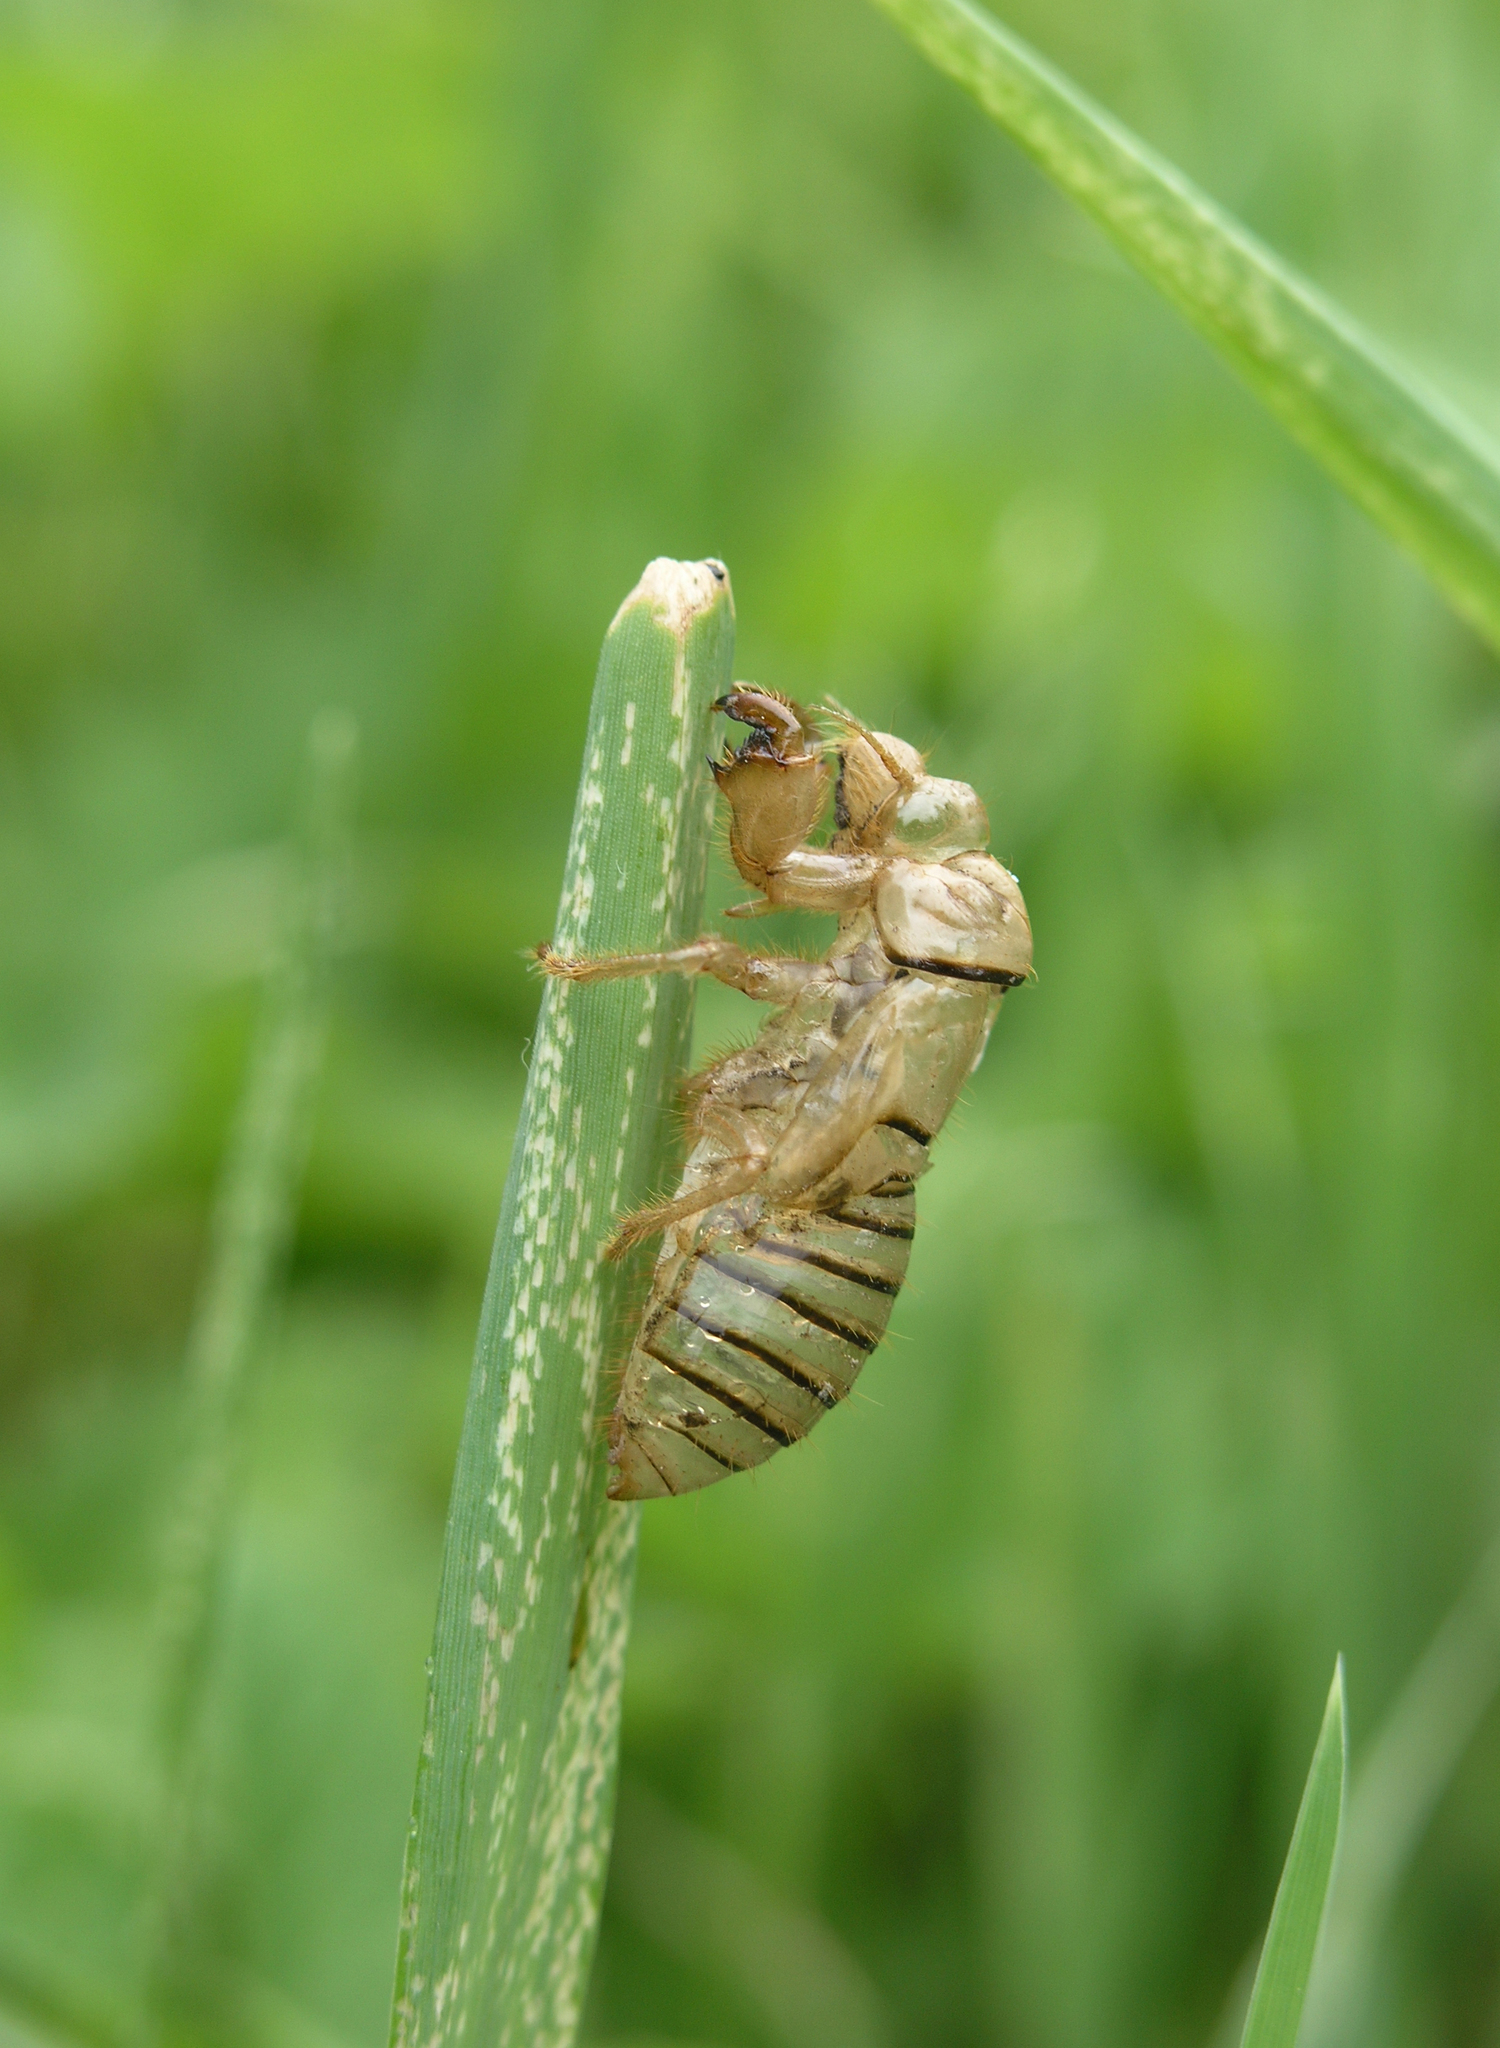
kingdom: Animalia
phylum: Arthropoda
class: Insecta
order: Hemiptera
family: Cicadidae
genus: Cicadetta
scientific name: Cicadetta montana
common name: New forest cicada
